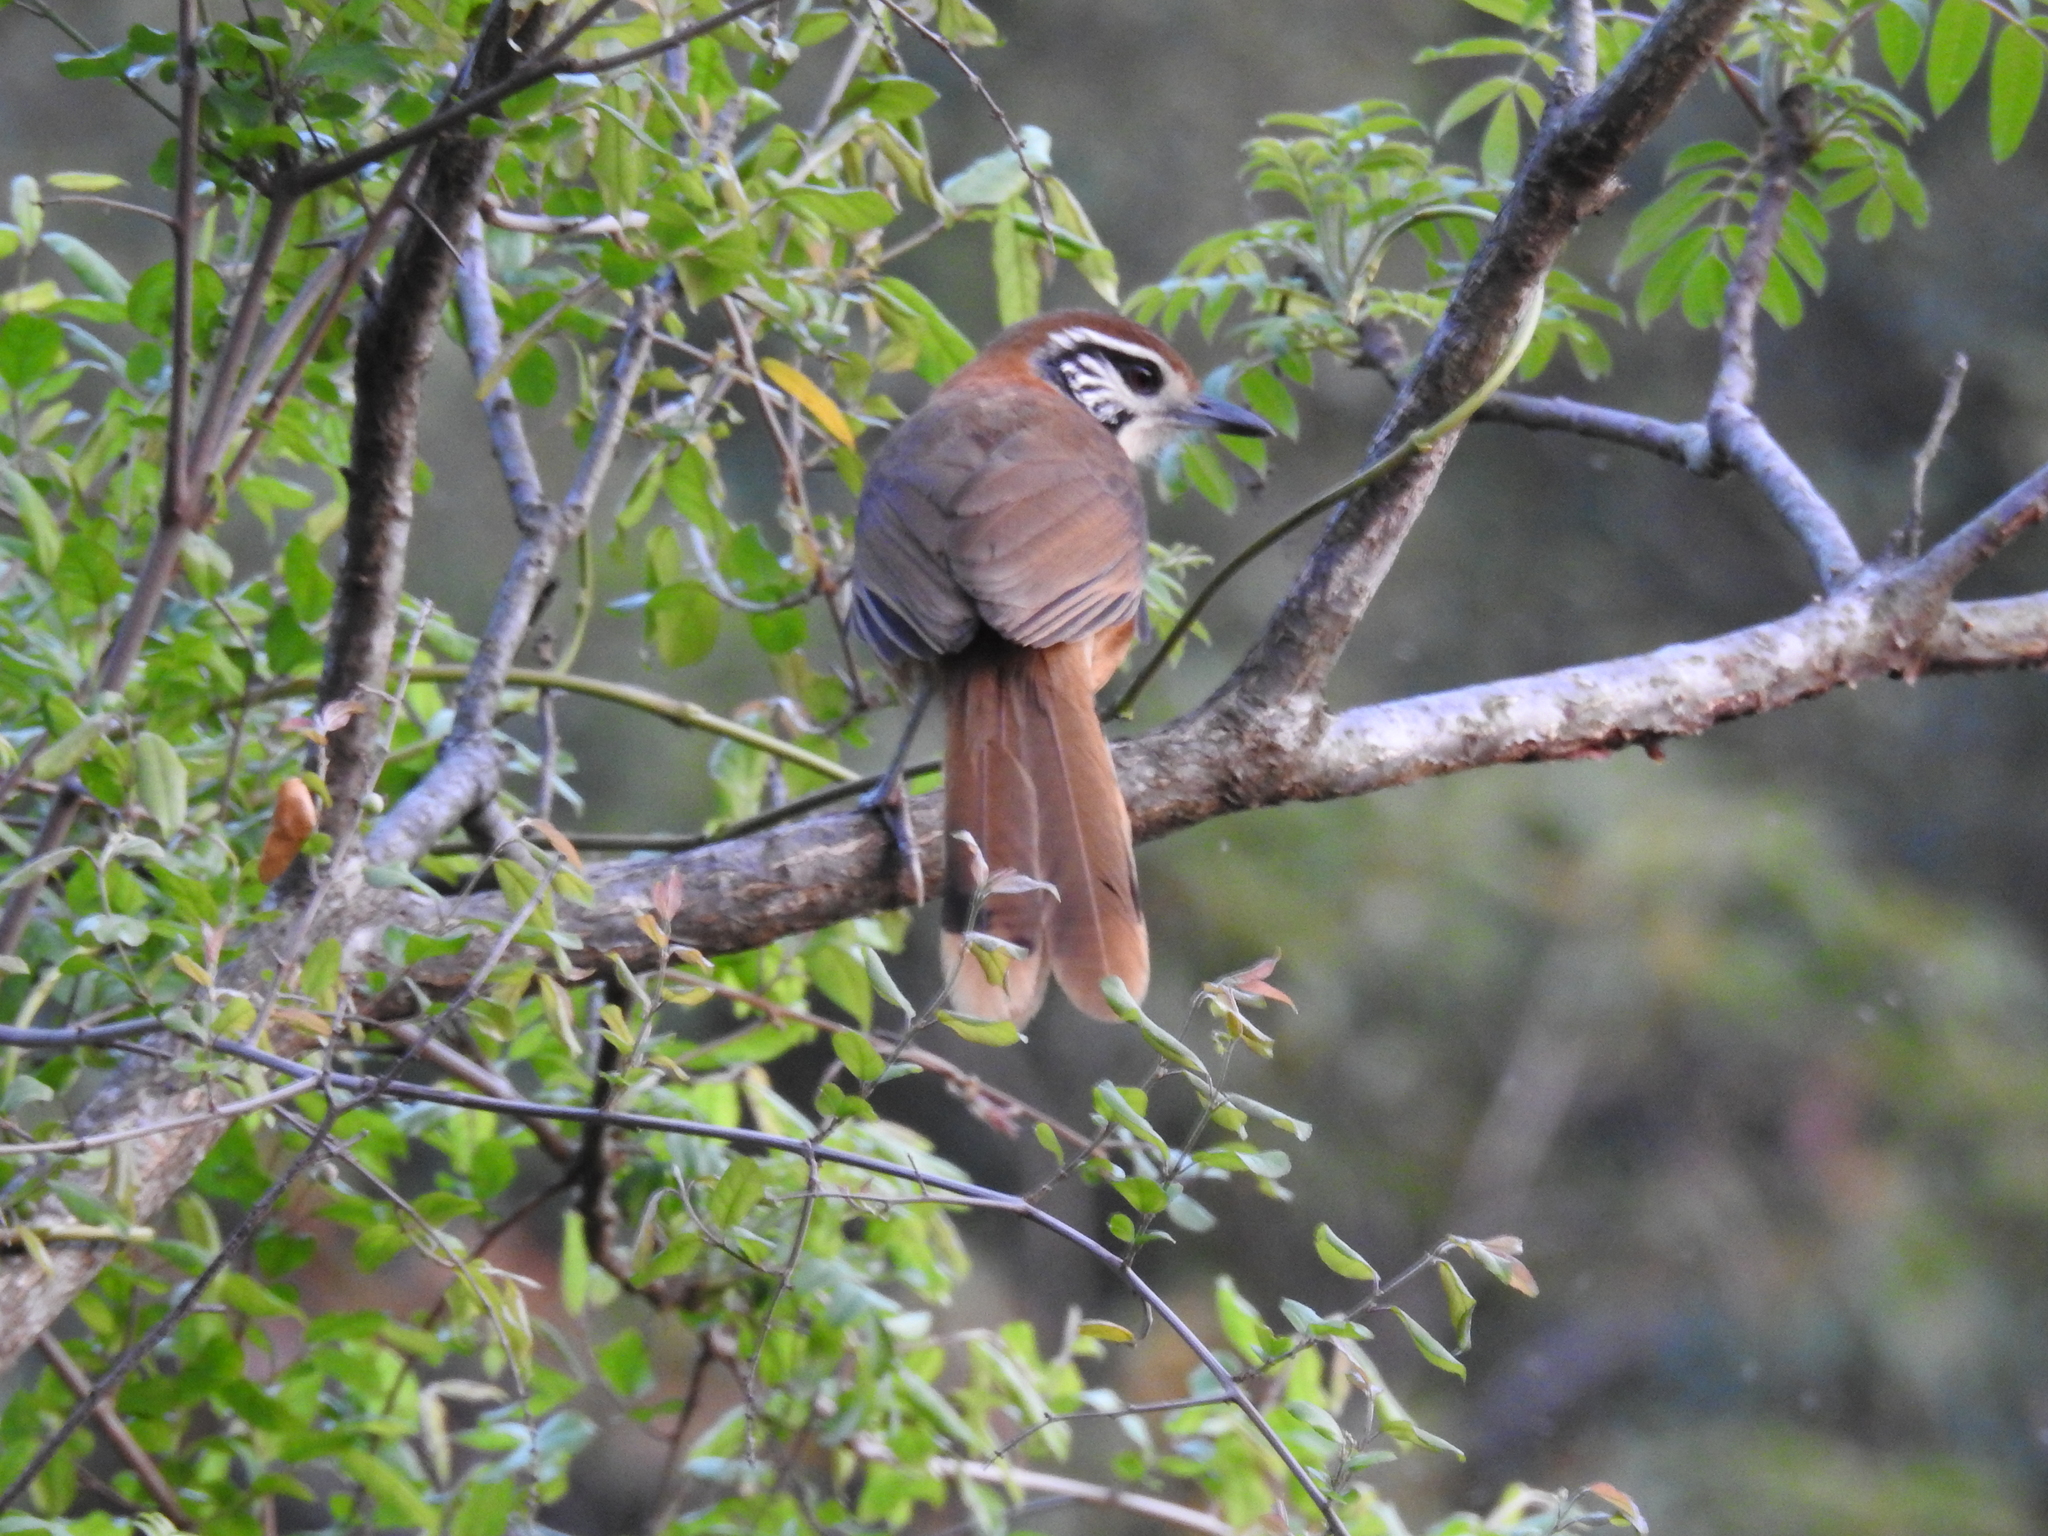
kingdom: Animalia
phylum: Chordata
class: Aves
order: Passeriformes
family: Leiothrichidae
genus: Garrulax
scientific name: Garrulax pectoralis
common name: Greater necklaced laughingthrush
